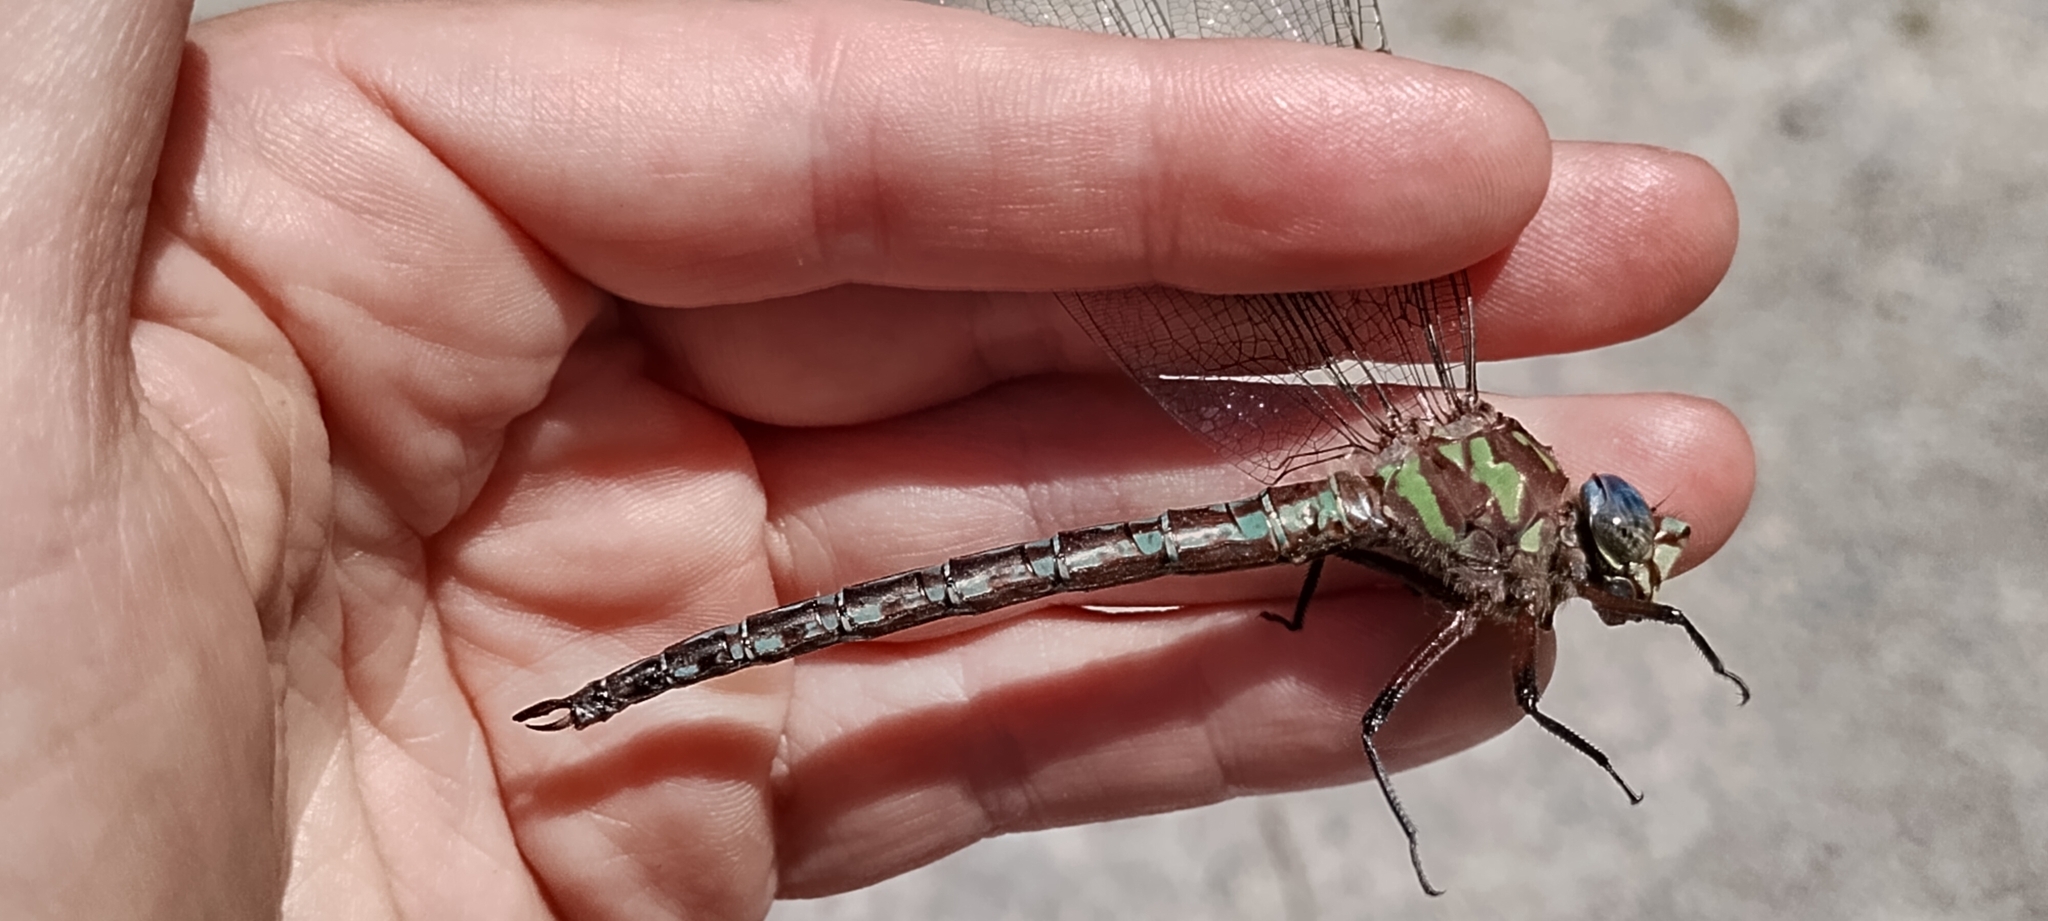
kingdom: Animalia
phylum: Arthropoda
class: Insecta
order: Odonata
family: Aeshnidae
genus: Nasiaeschna
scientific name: Nasiaeschna pentacantha
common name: Cyrano darner
